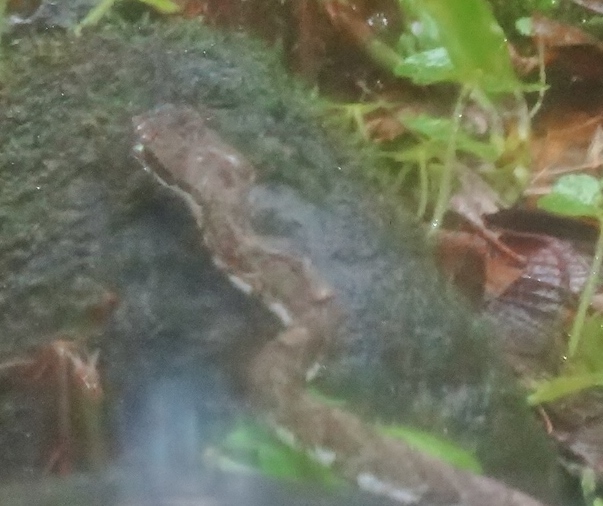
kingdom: Animalia
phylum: Chordata
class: Squamata
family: Viperidae
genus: Bothriechis
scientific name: Bothriechis schlegelii
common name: Eyelash viper
